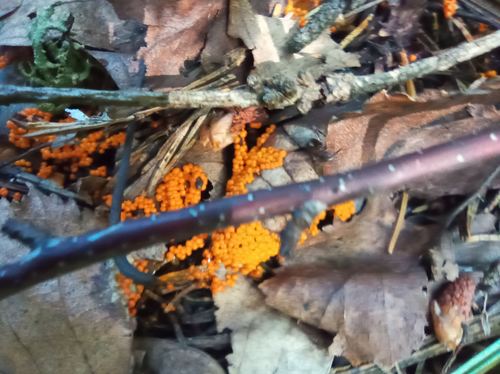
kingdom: Protozoa
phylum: Mycetozoa
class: Myxomycetes
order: Physarales
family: Physaraceae
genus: Physarum
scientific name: Physarum
